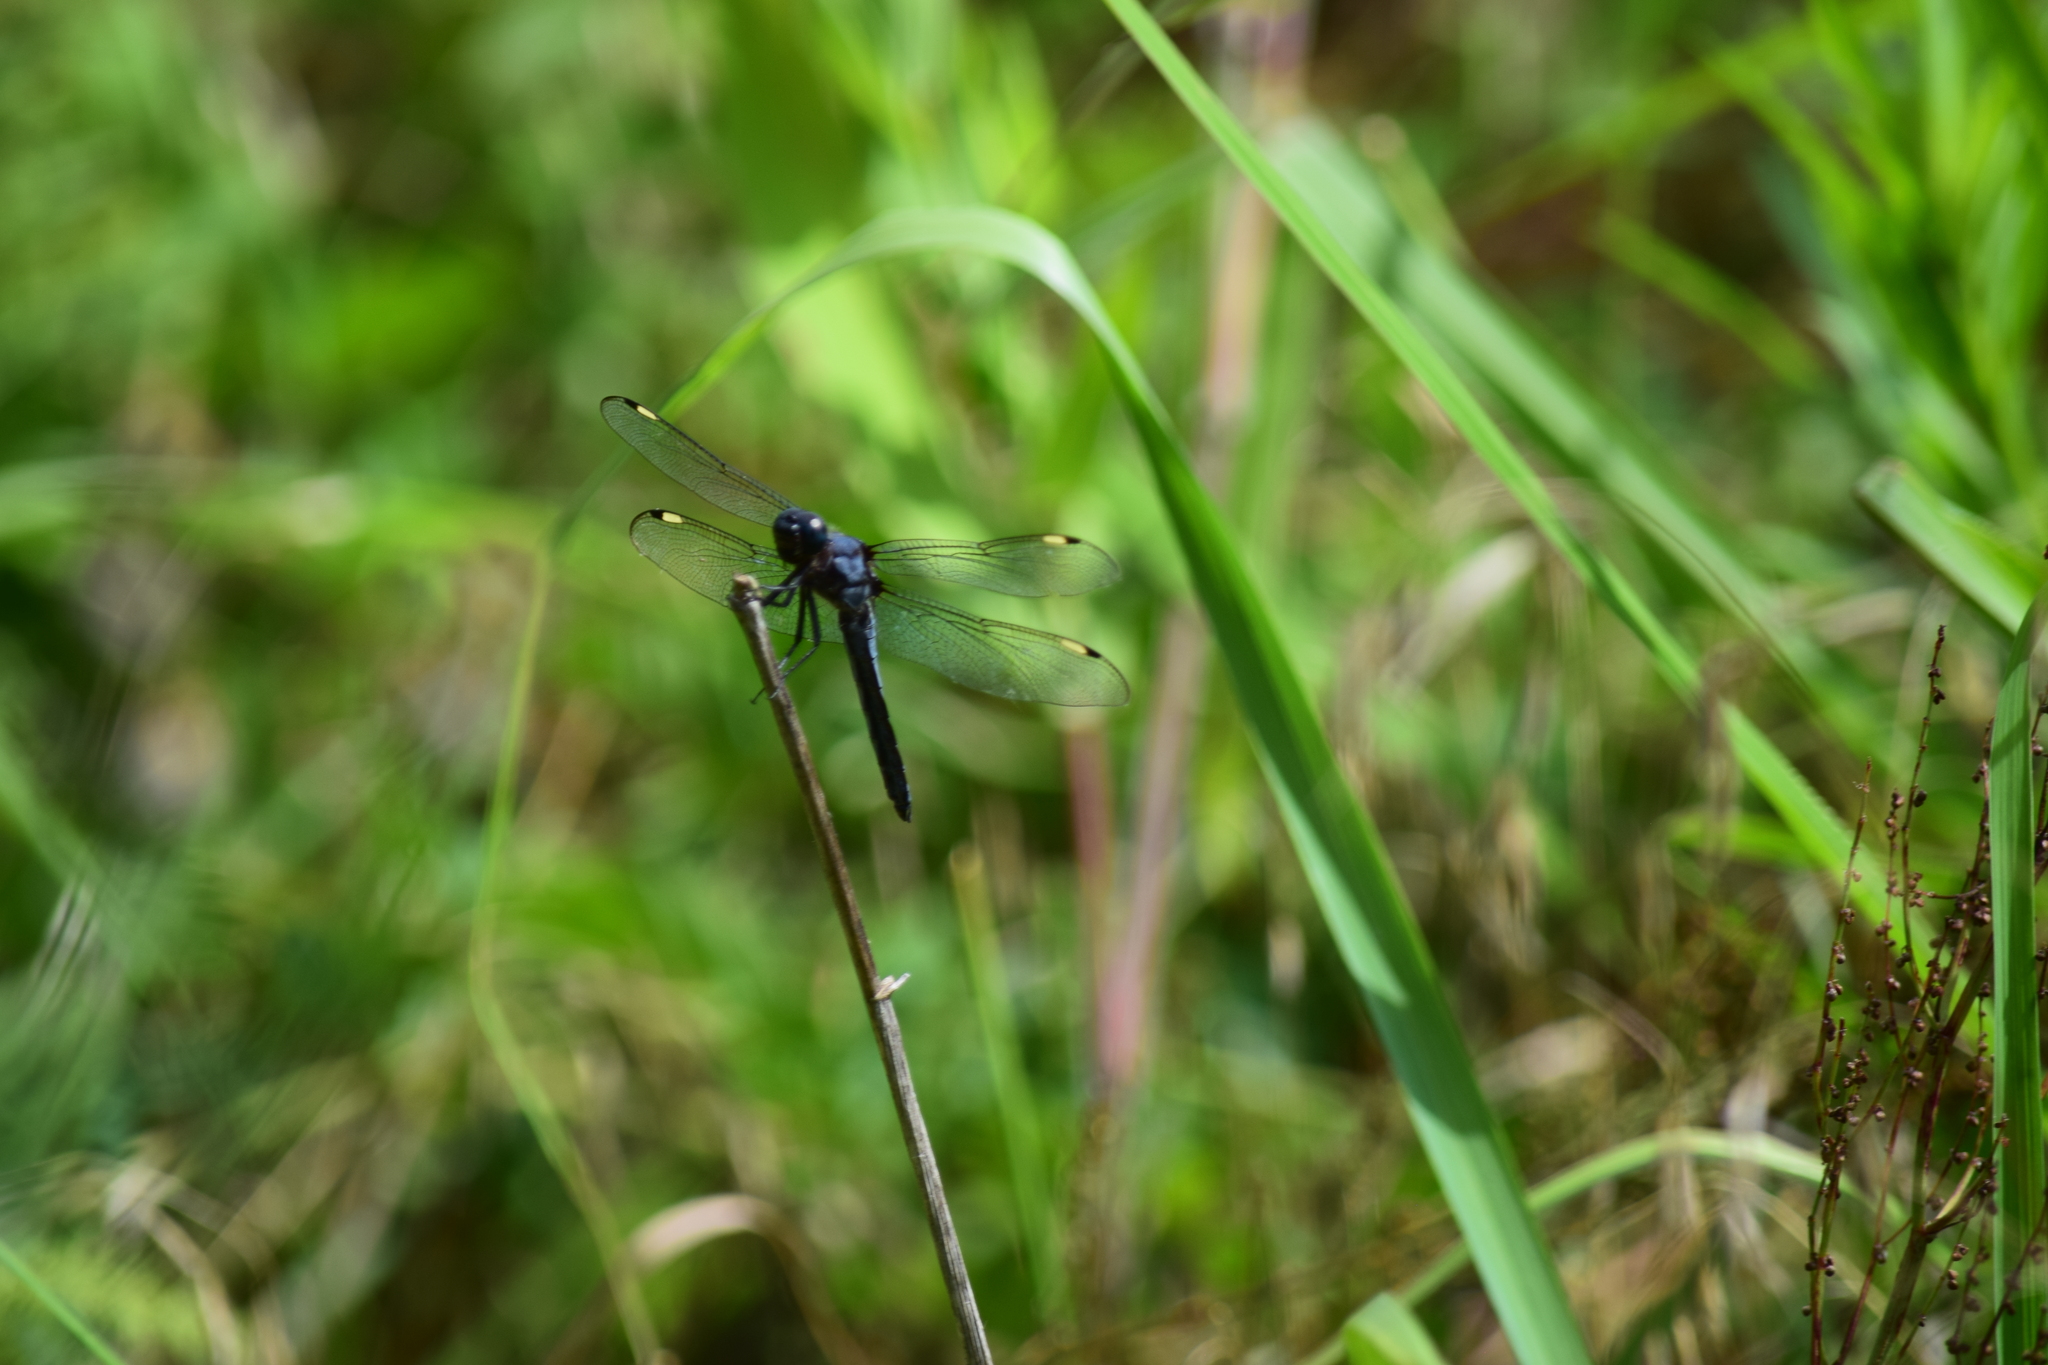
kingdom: Animalia
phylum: Arthropoda
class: Insecta
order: Odonata
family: Libellulidae
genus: Libellula
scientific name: Libellula cyanea
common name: Spangled skimmer
